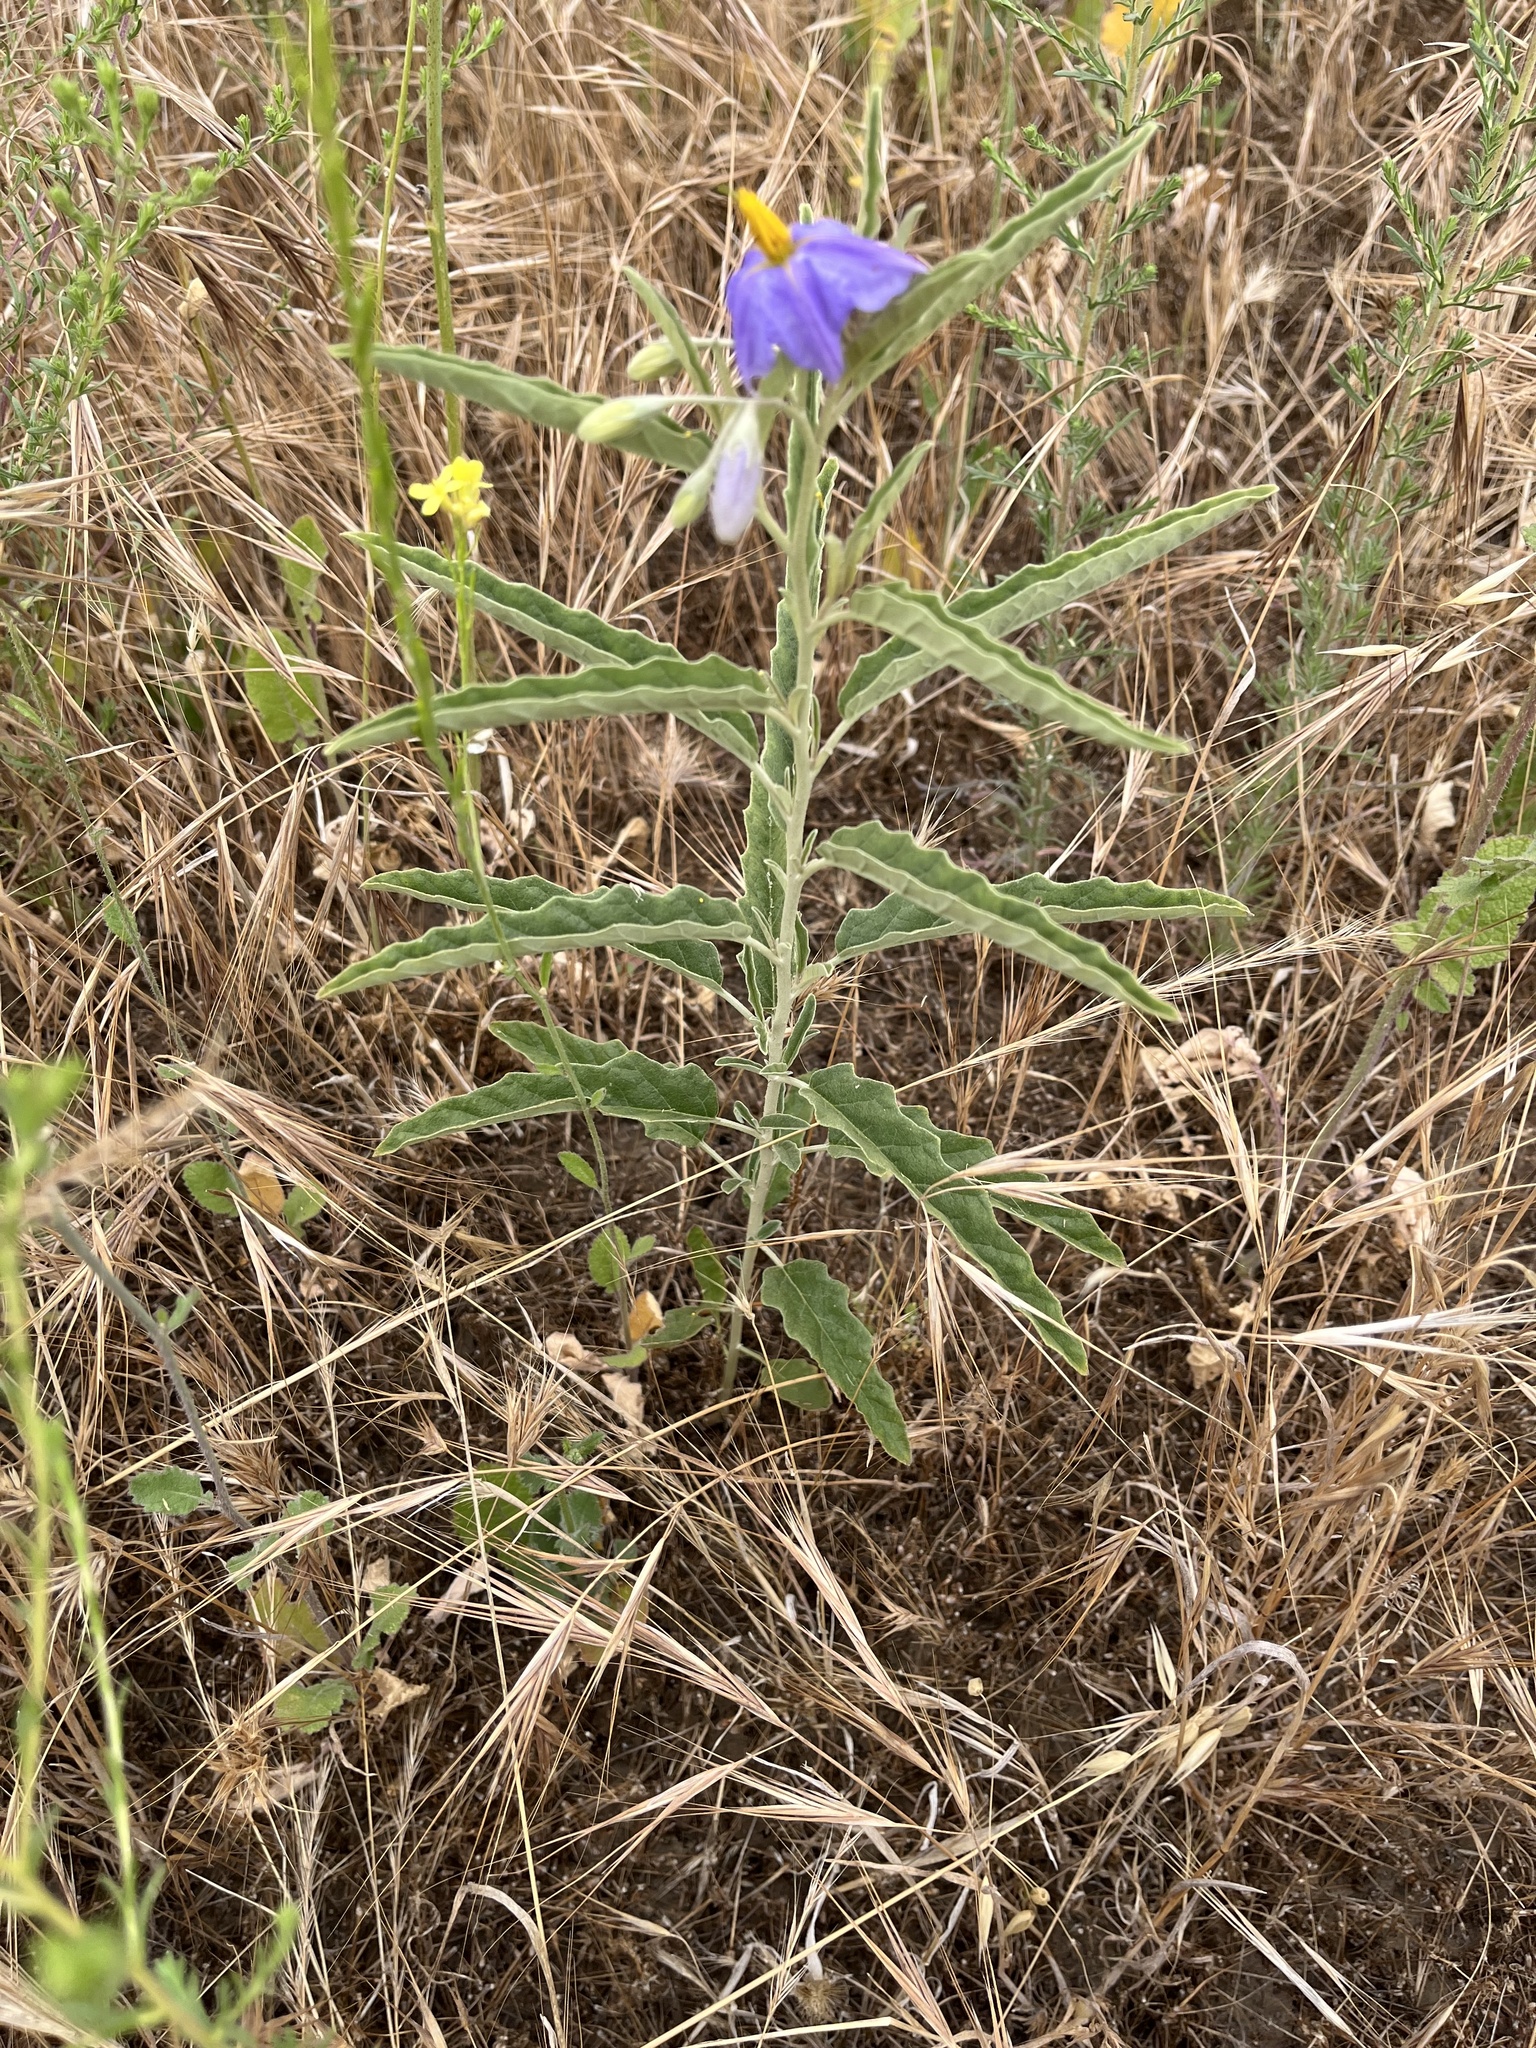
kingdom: Plantae
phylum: Tracheophyta
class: Magnoliopsida
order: Solanales
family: Solanaceae
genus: Solanum
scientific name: Solanum elaeagnifolium
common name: Silverleaf nightshade
